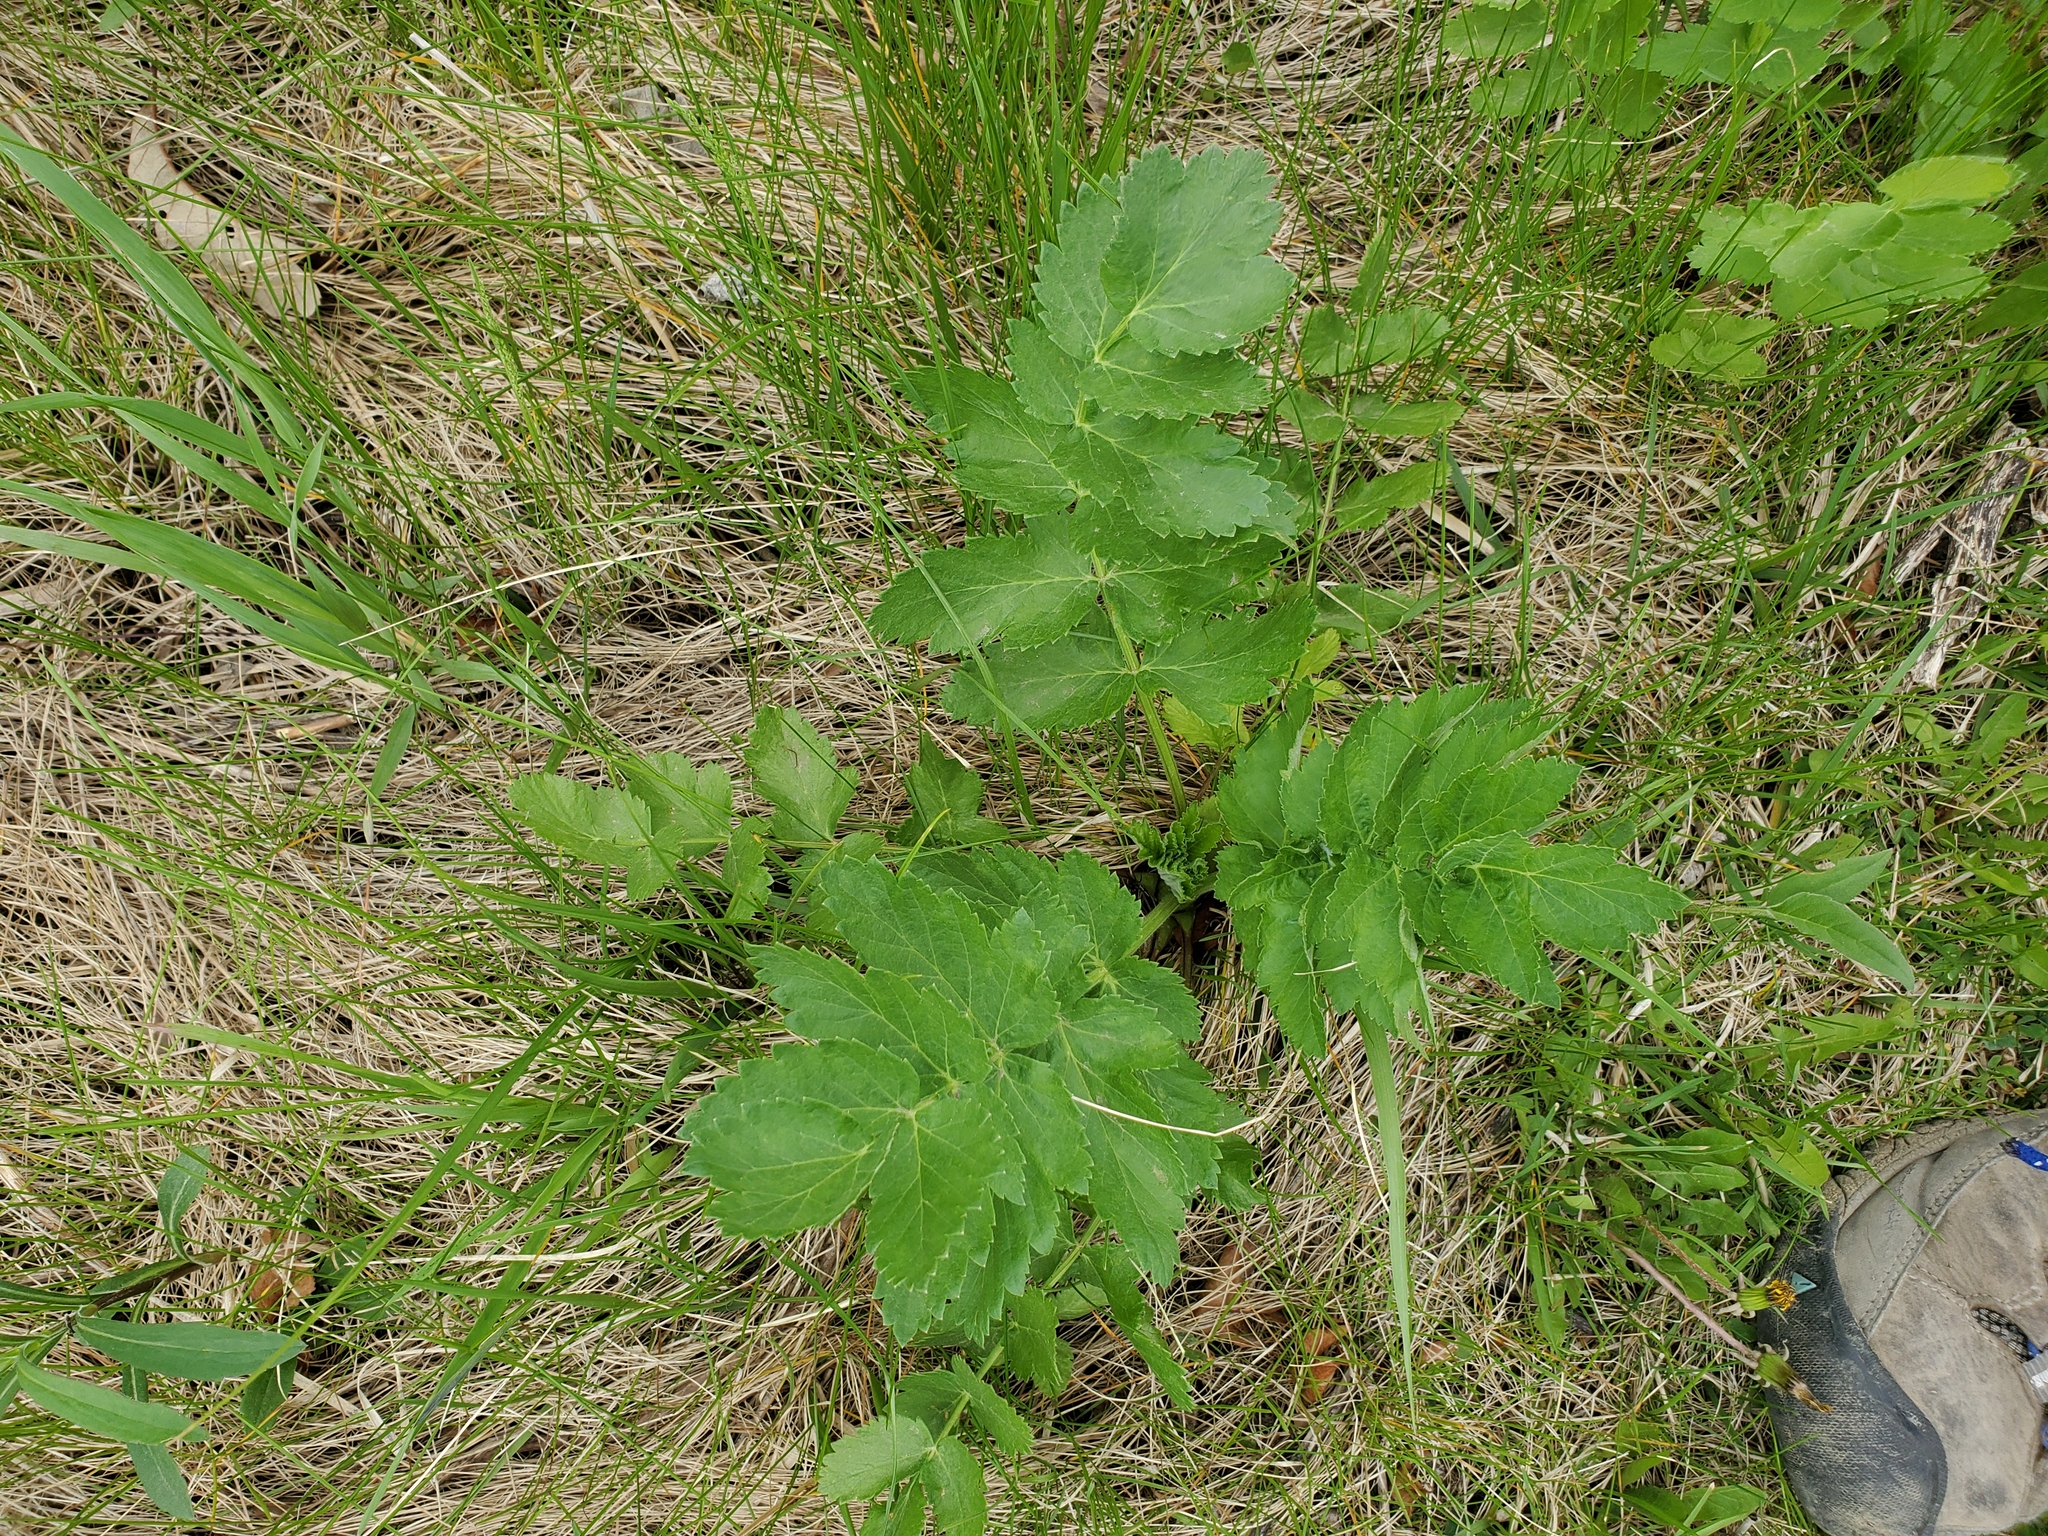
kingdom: Plantae
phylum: Tracheophyta
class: Magnoliopsida
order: Apiales
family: Apiaceae
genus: Pastinaca
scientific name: Pastinaca sativa
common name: Wild parsnip
